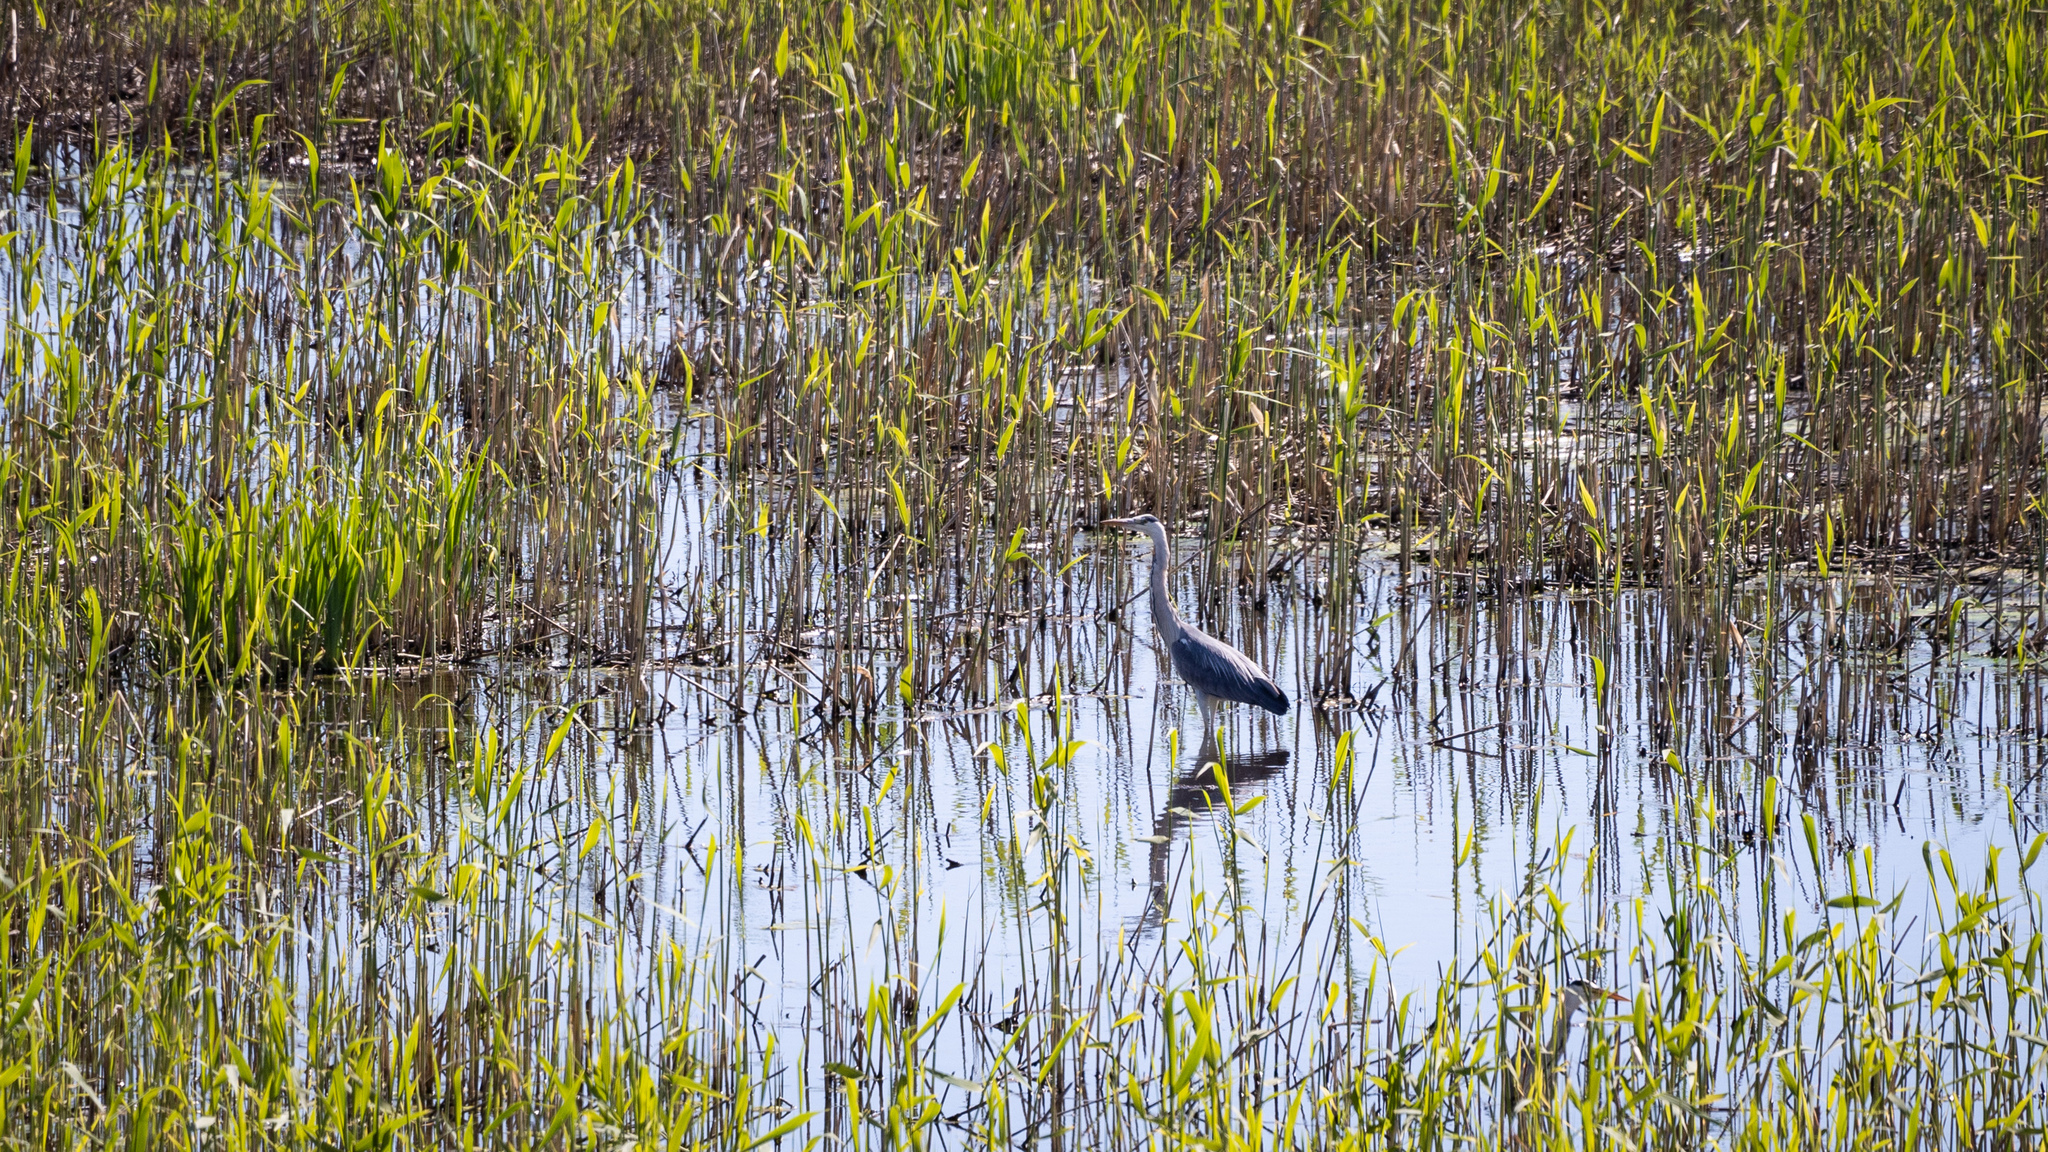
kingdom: Animalia
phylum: Chordata
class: Aves
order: Pelecaniformes
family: Ardeidae
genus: Ardea
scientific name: Ardea cinerea
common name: Grey heron
